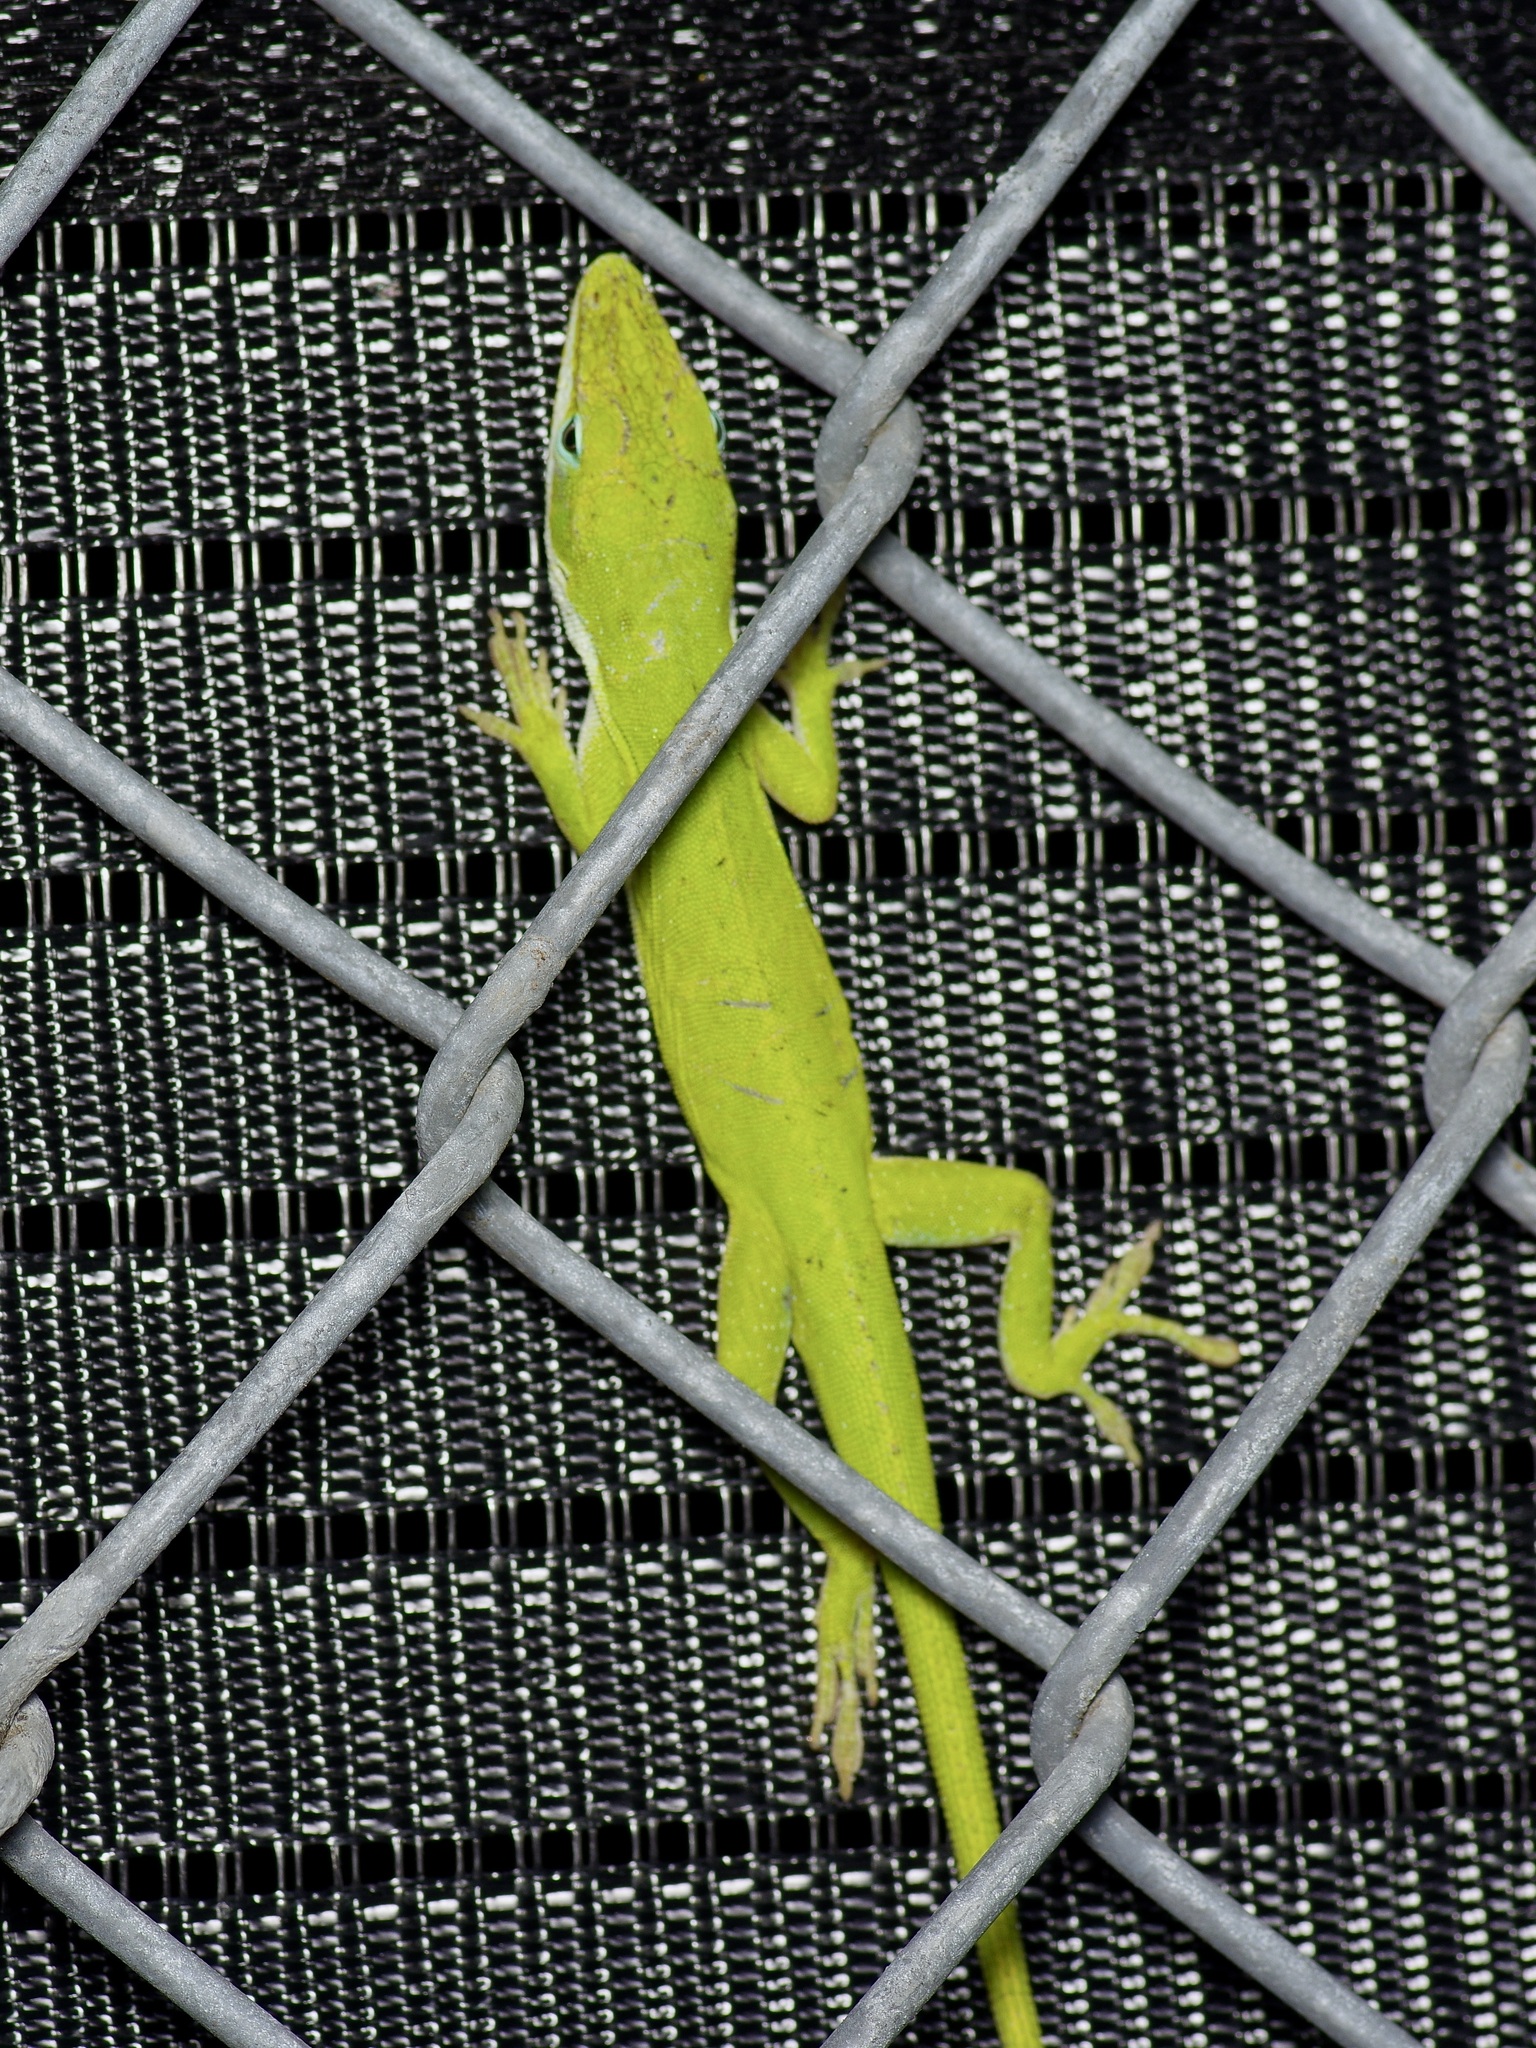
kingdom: Animalia
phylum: Chordata
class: Squamata
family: Dactyloidae
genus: Anolis
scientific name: Anolis carolinensis
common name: Green anole
